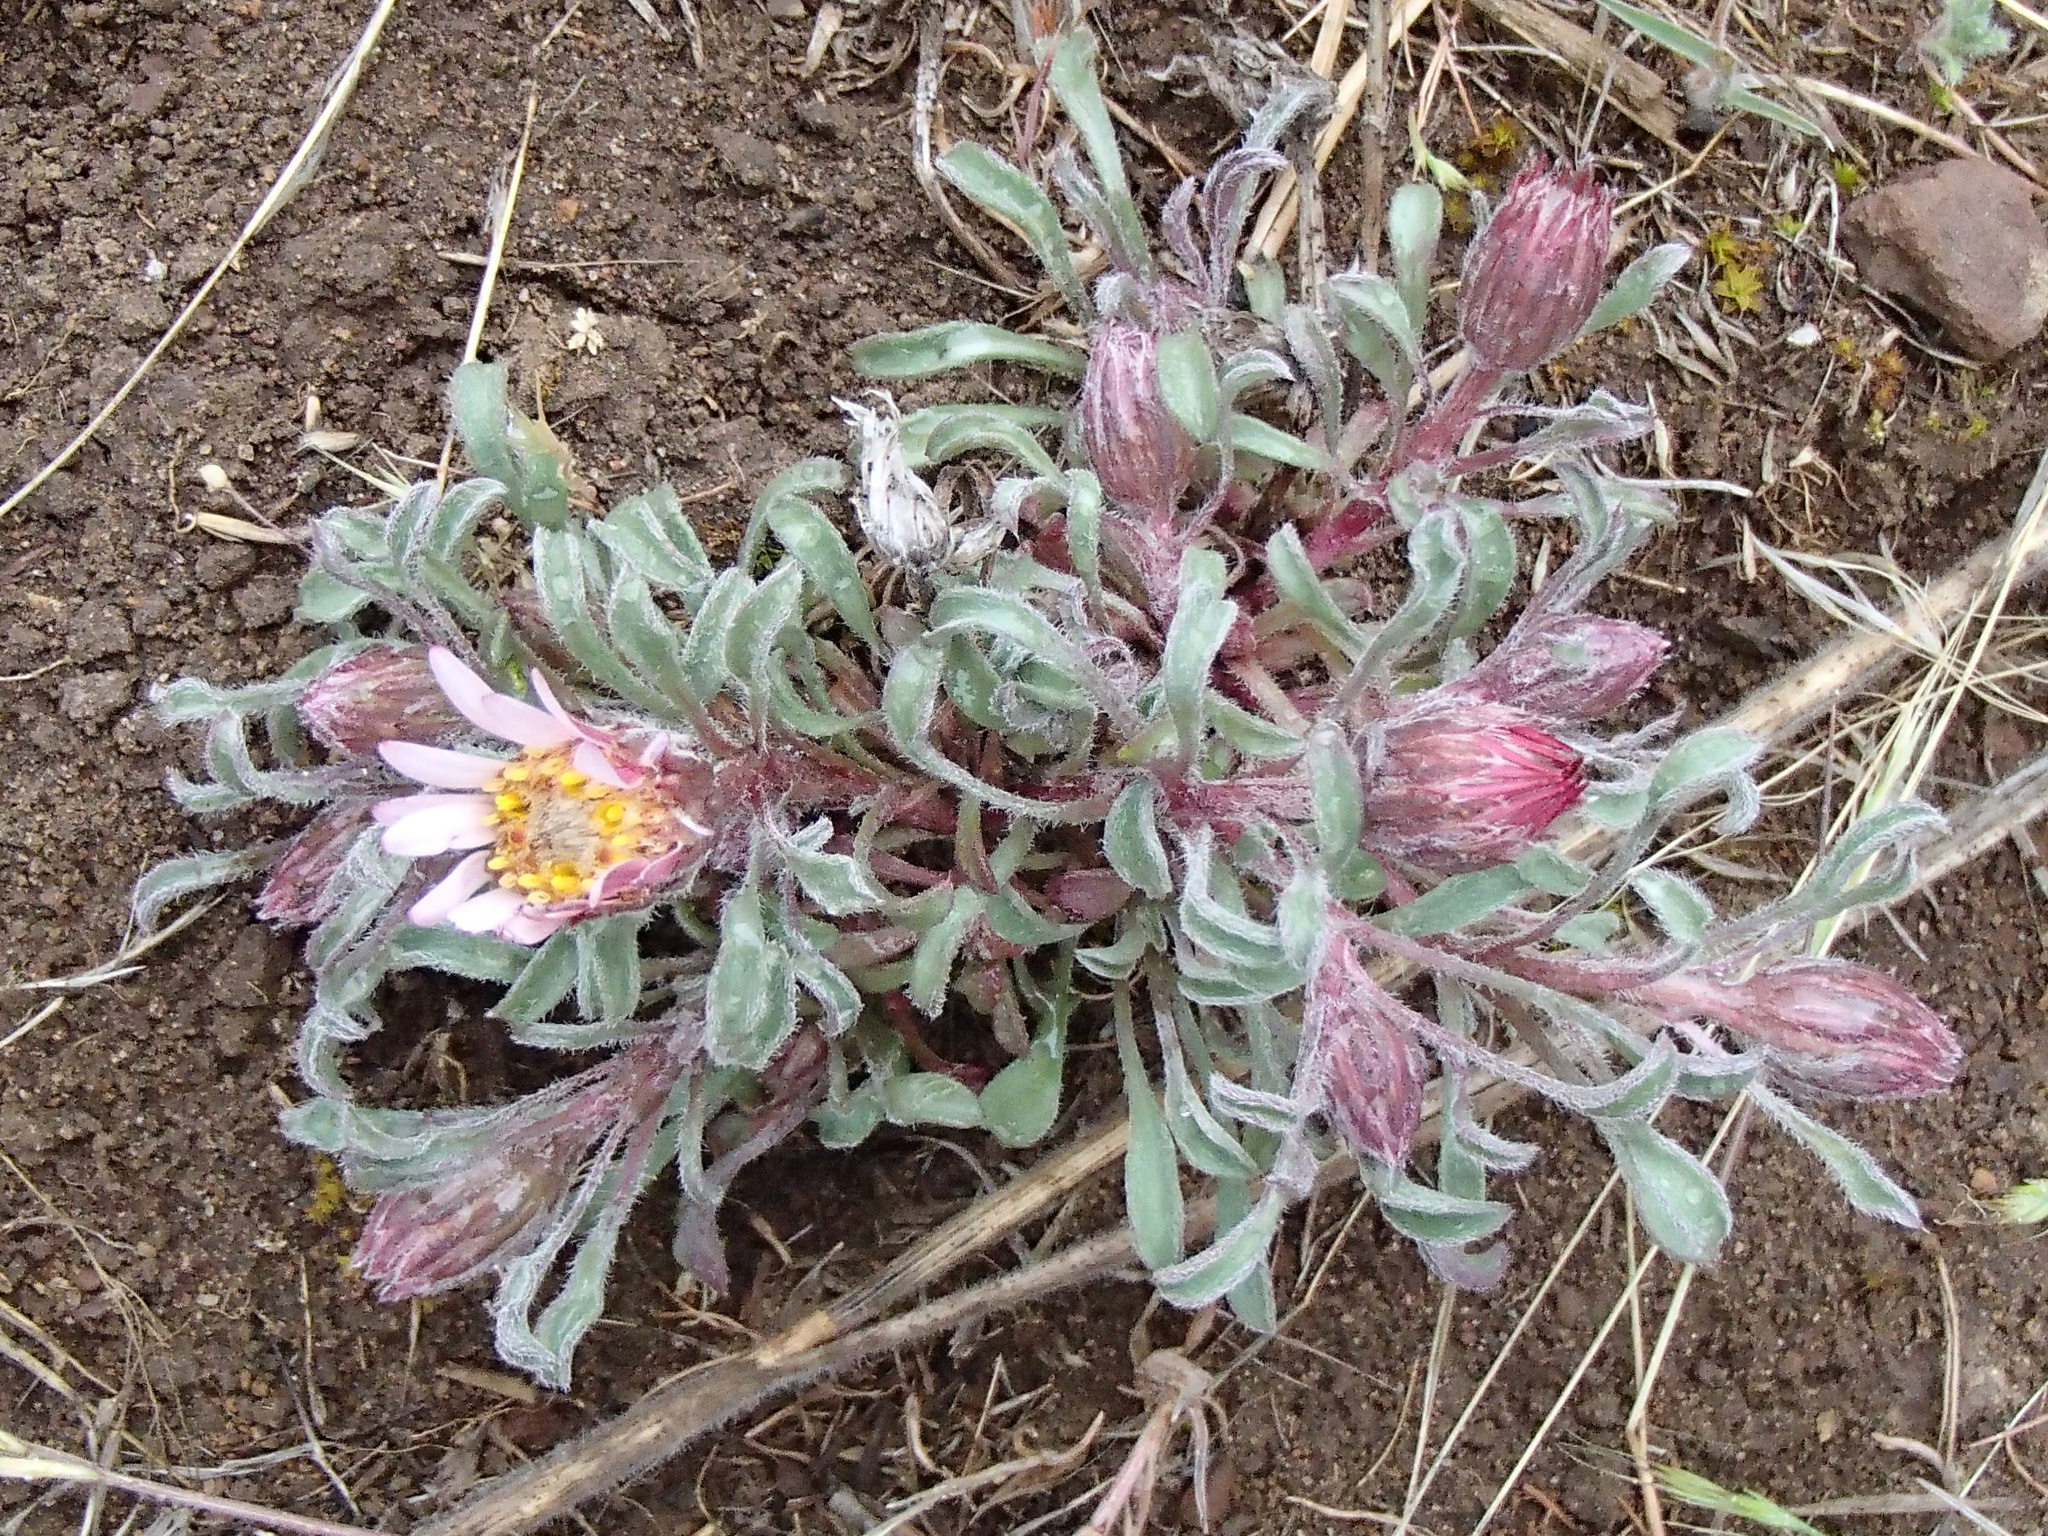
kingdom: Plantae
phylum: Tracheophyta
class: Magnoliopsida
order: Asterales
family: Asteraceae
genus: Townsendia
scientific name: Townsendia florifera
